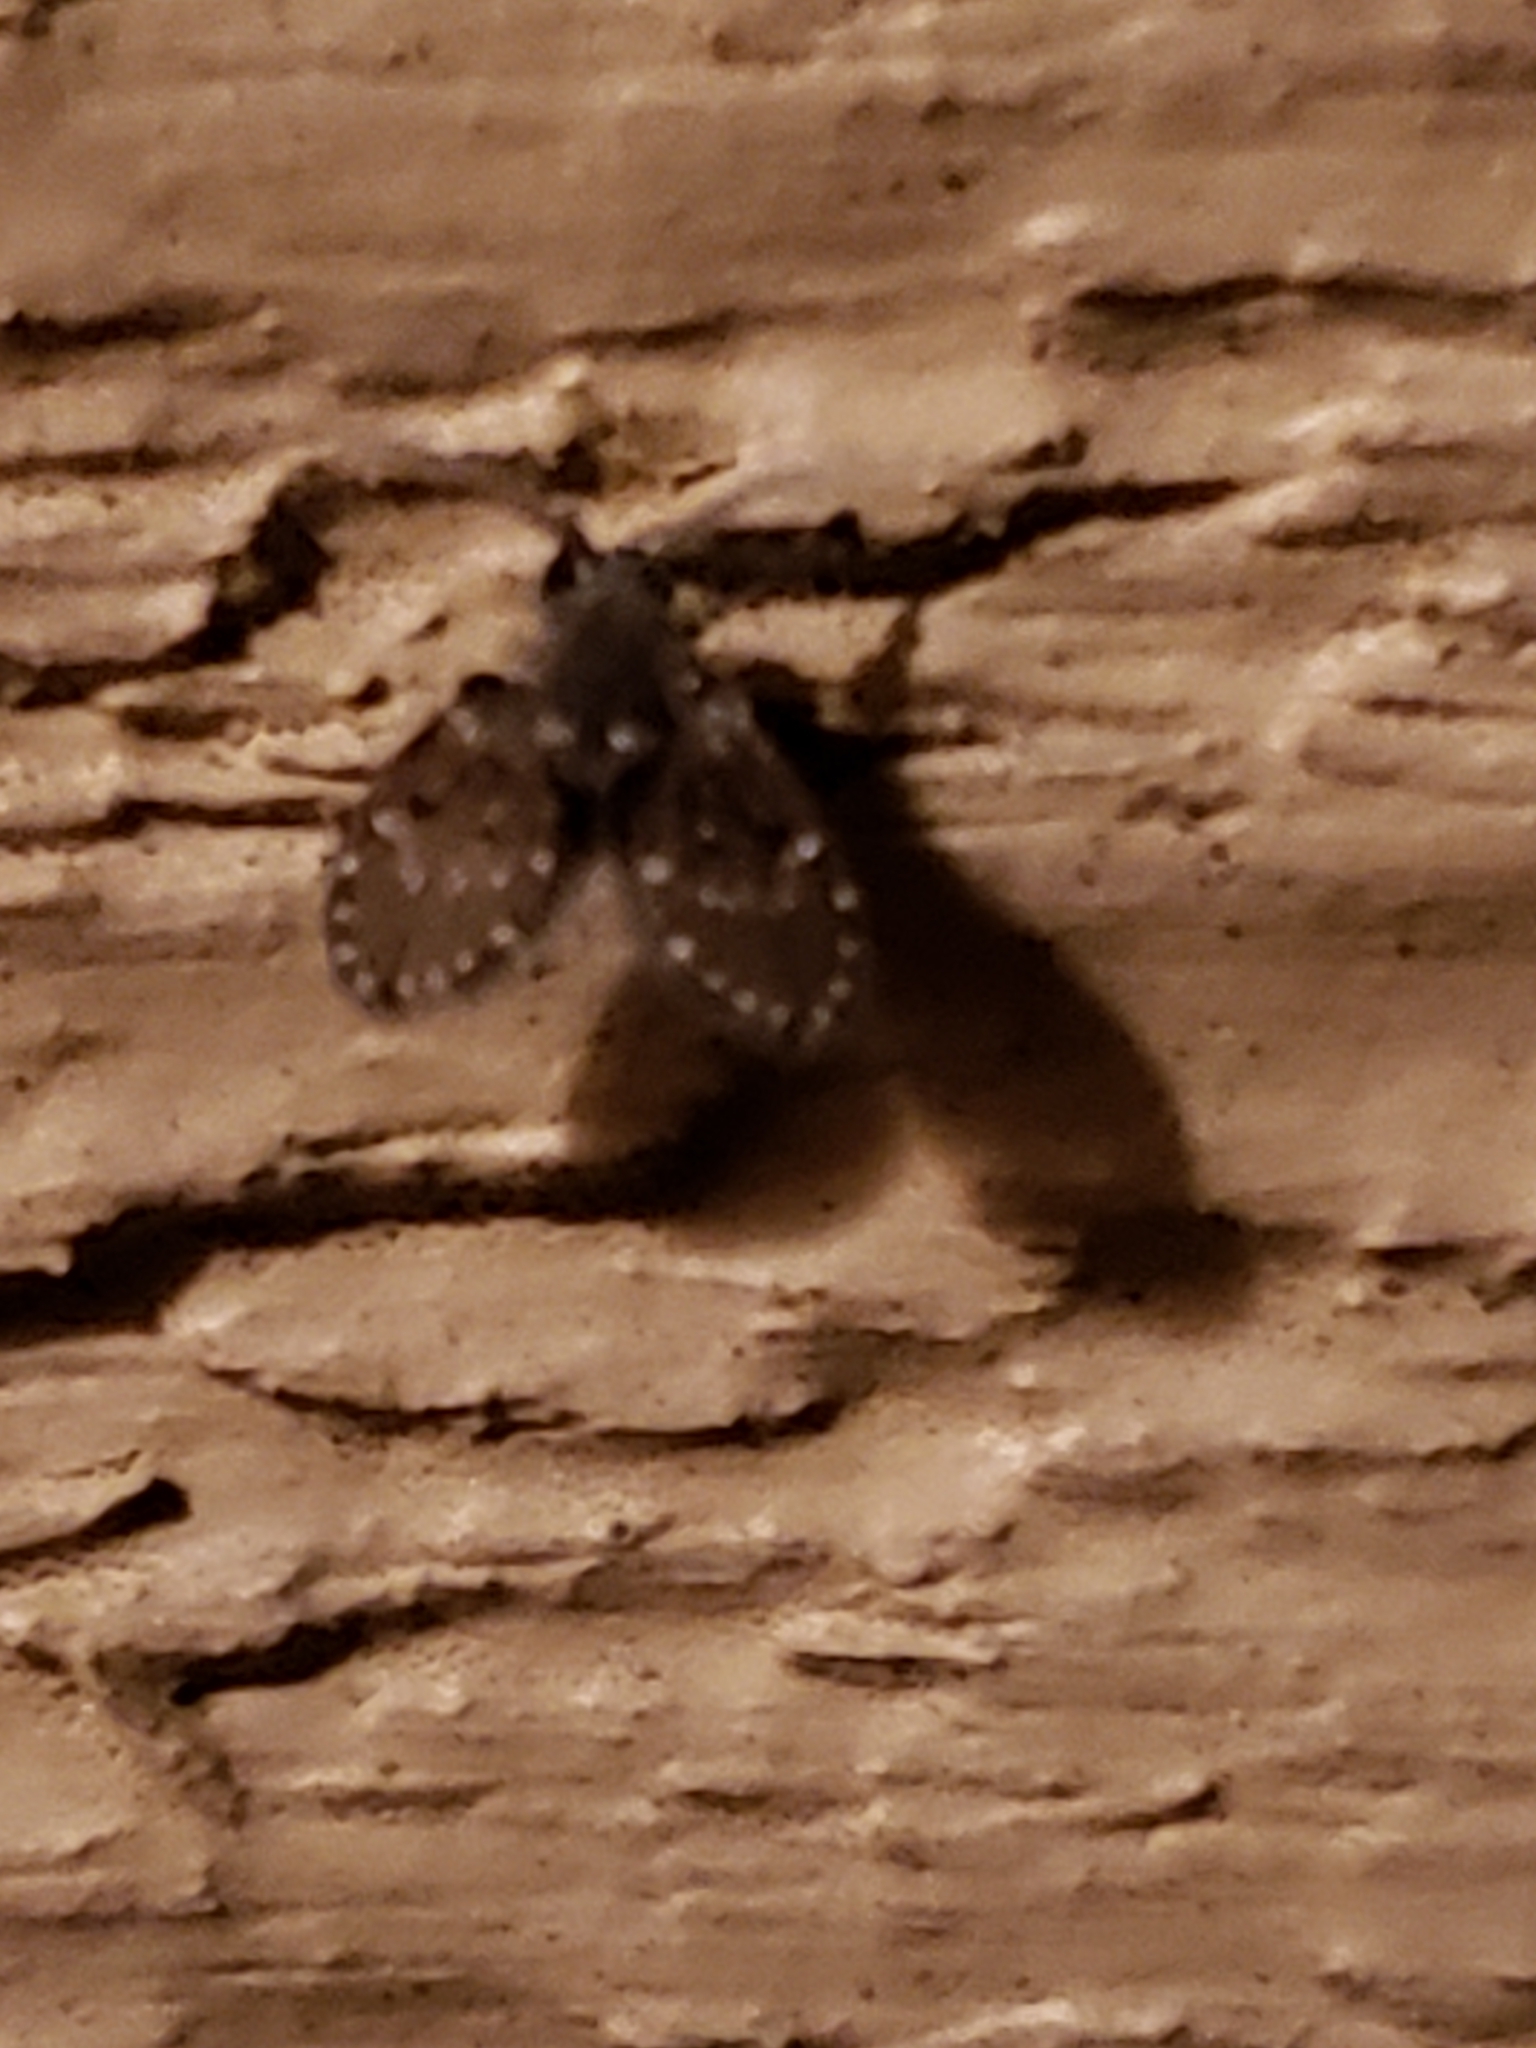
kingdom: Animalia
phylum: Arthropoda
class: Insecta
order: Diptera
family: Psychodidae
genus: Clogmia
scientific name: Clogmia albipunctatus
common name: White-spotted moth fly
